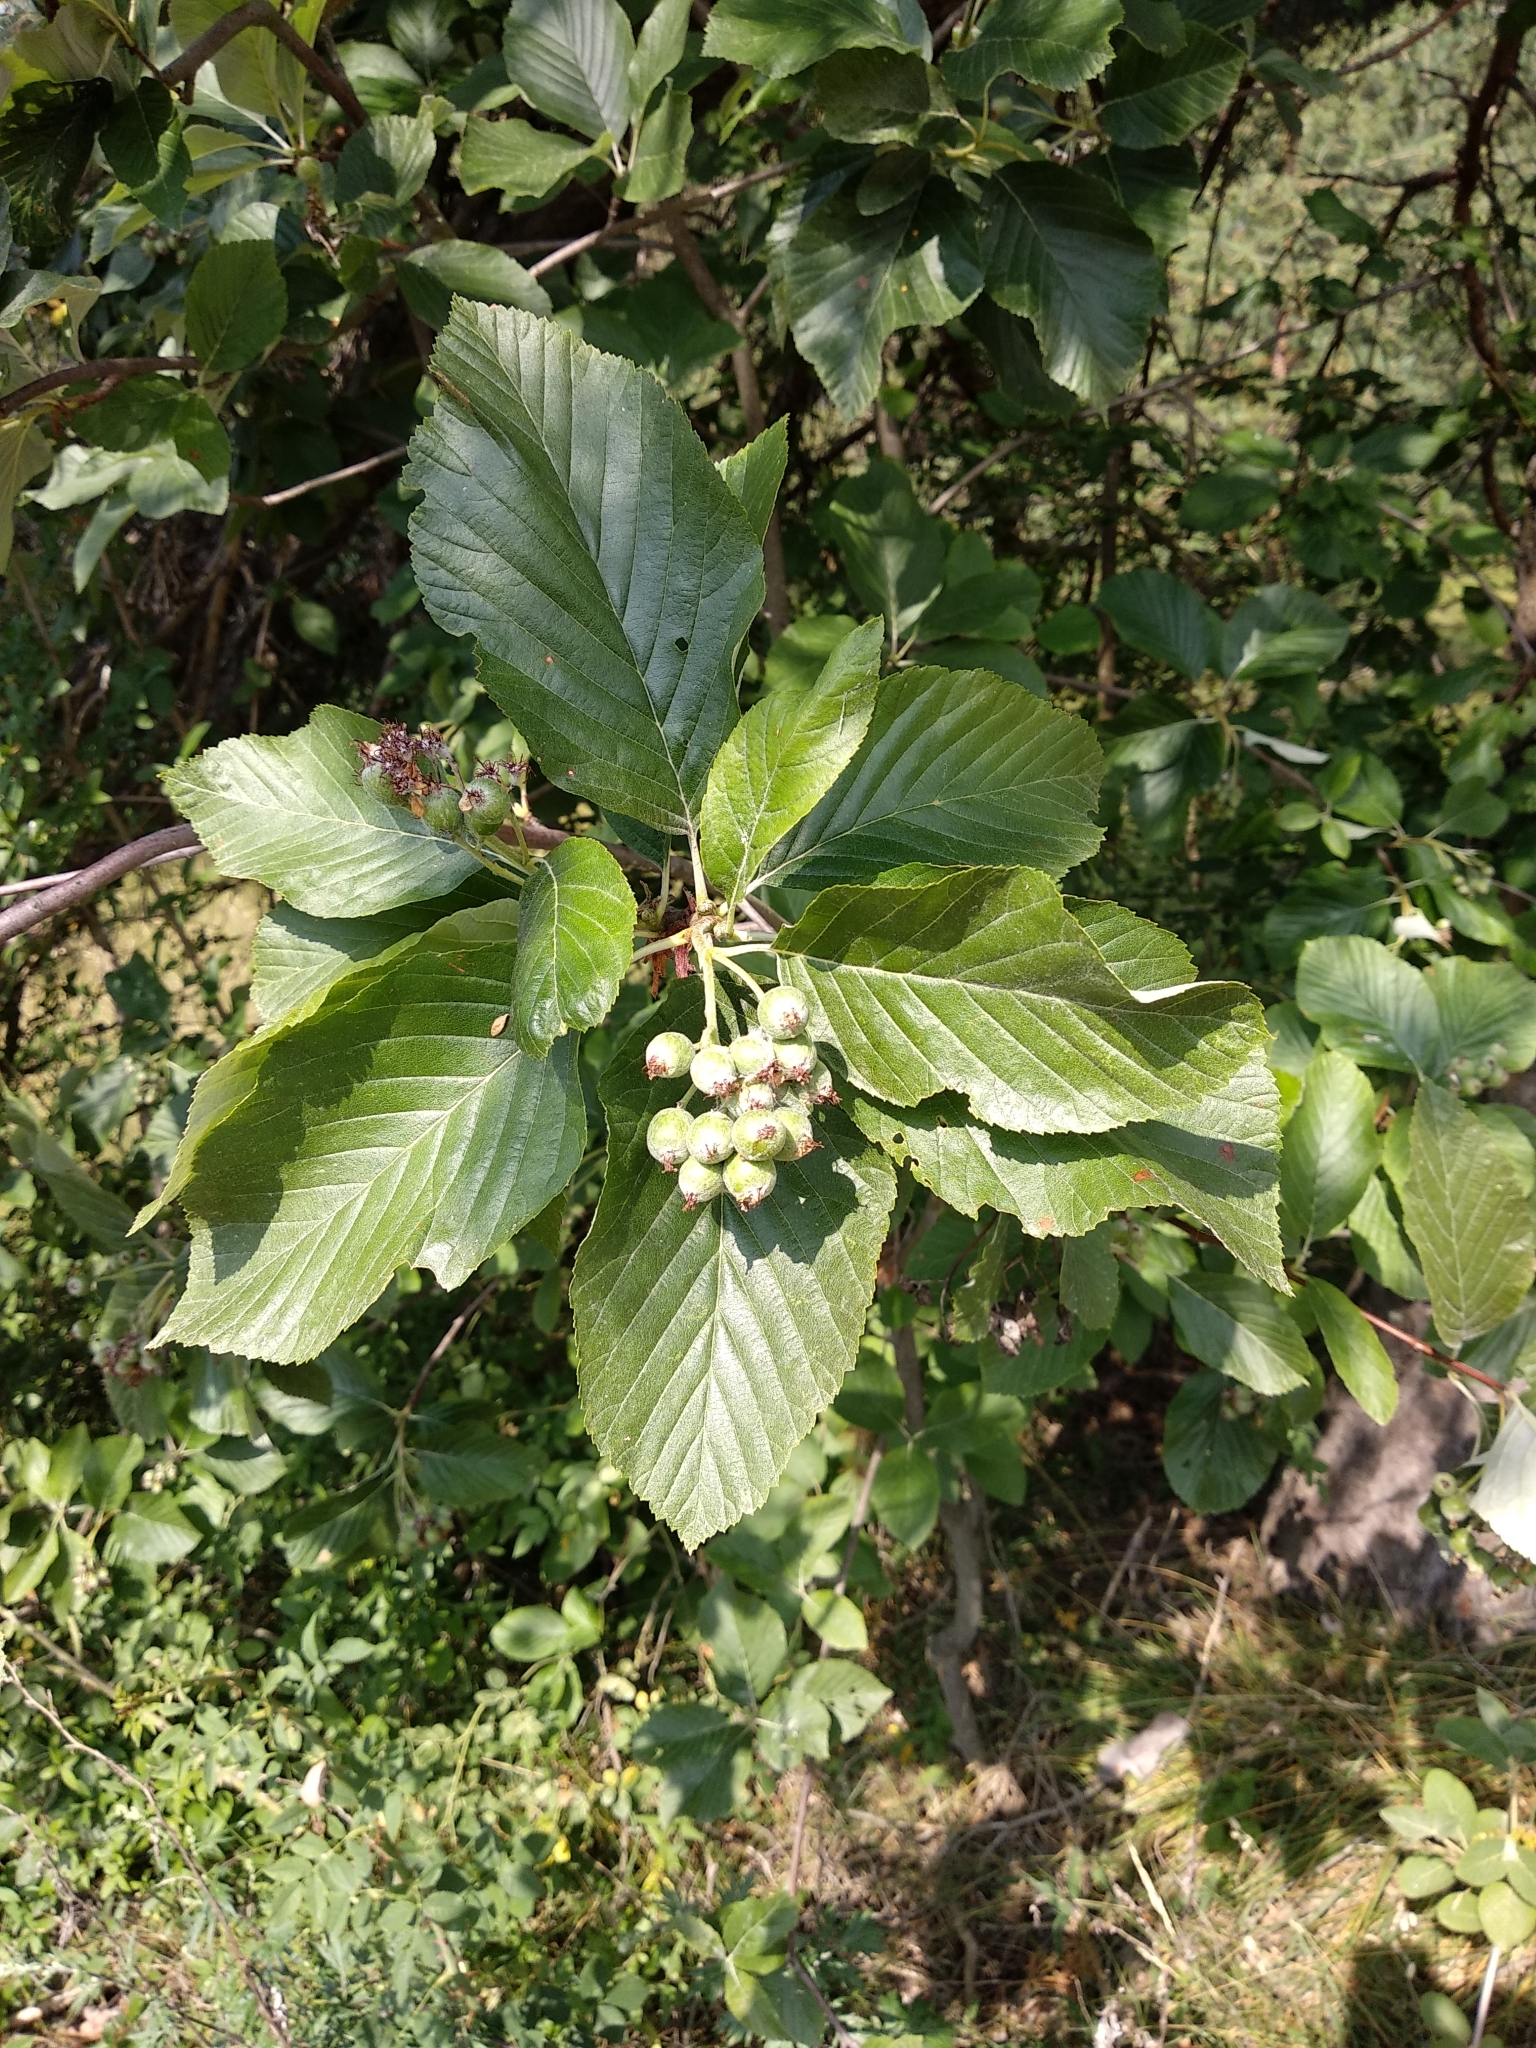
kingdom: Plantae
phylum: Tracheophyta
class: Magnoliopsida
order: Rosales
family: Rosaceae
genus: Aria
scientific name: Aria edulis
